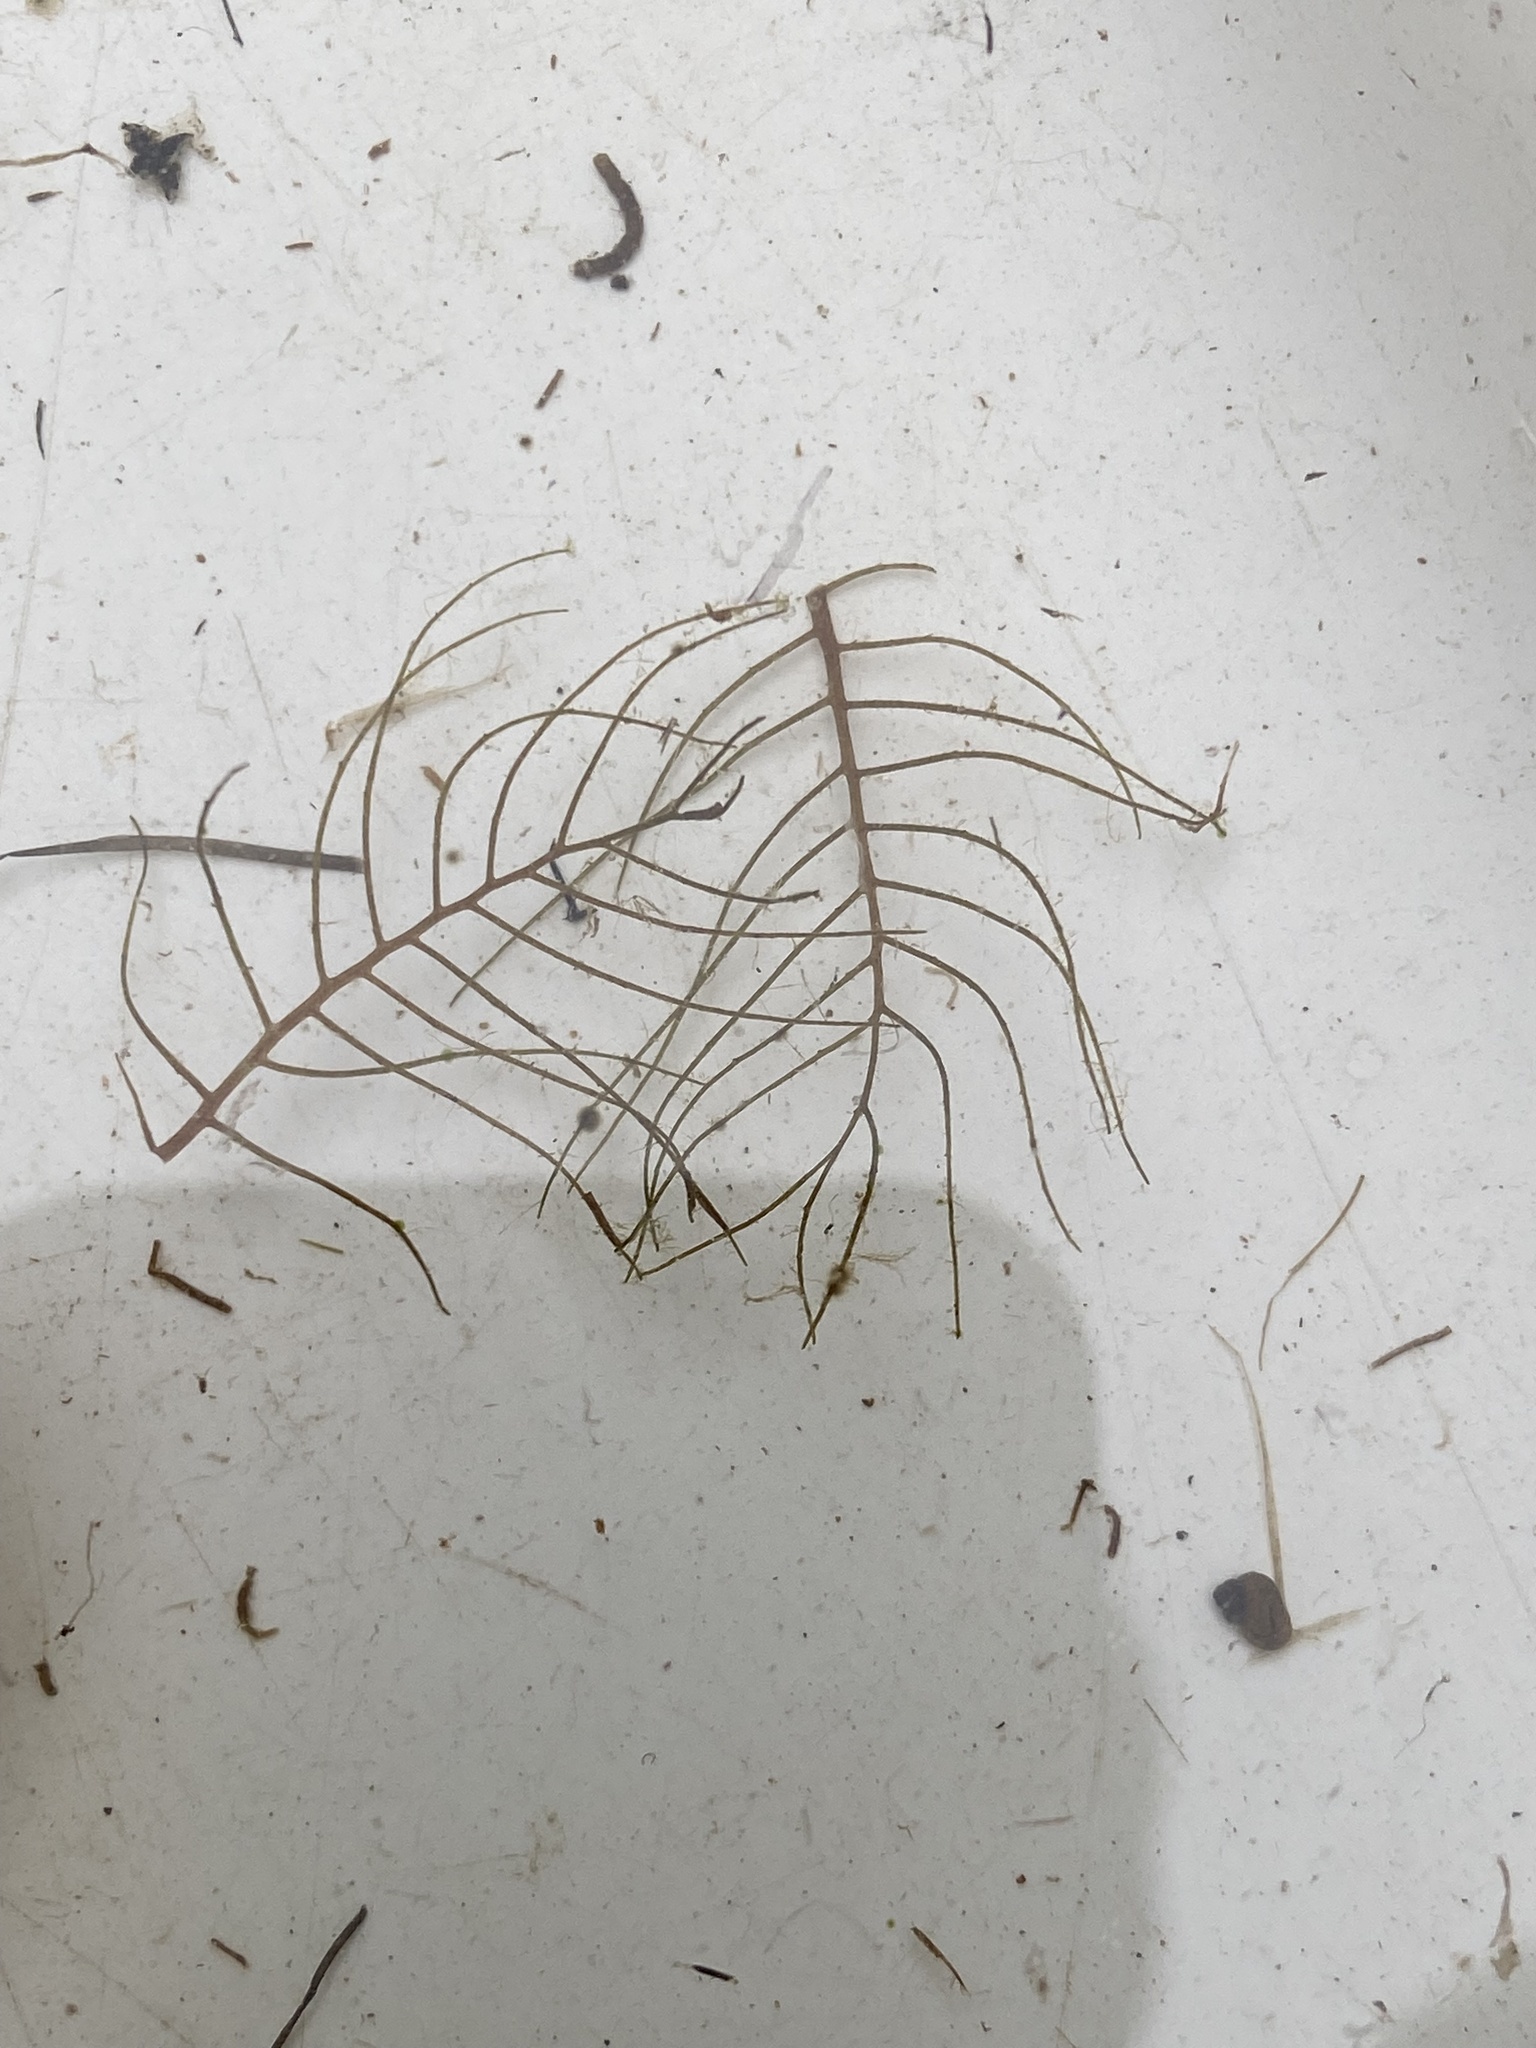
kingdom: Plantae
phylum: Tracheophyta
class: Magnoliopsida
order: Saxifragales
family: Haloragaceae
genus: Myriophyllum
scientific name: Myriophyllum verticillatum
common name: Whorled water-milfoil
